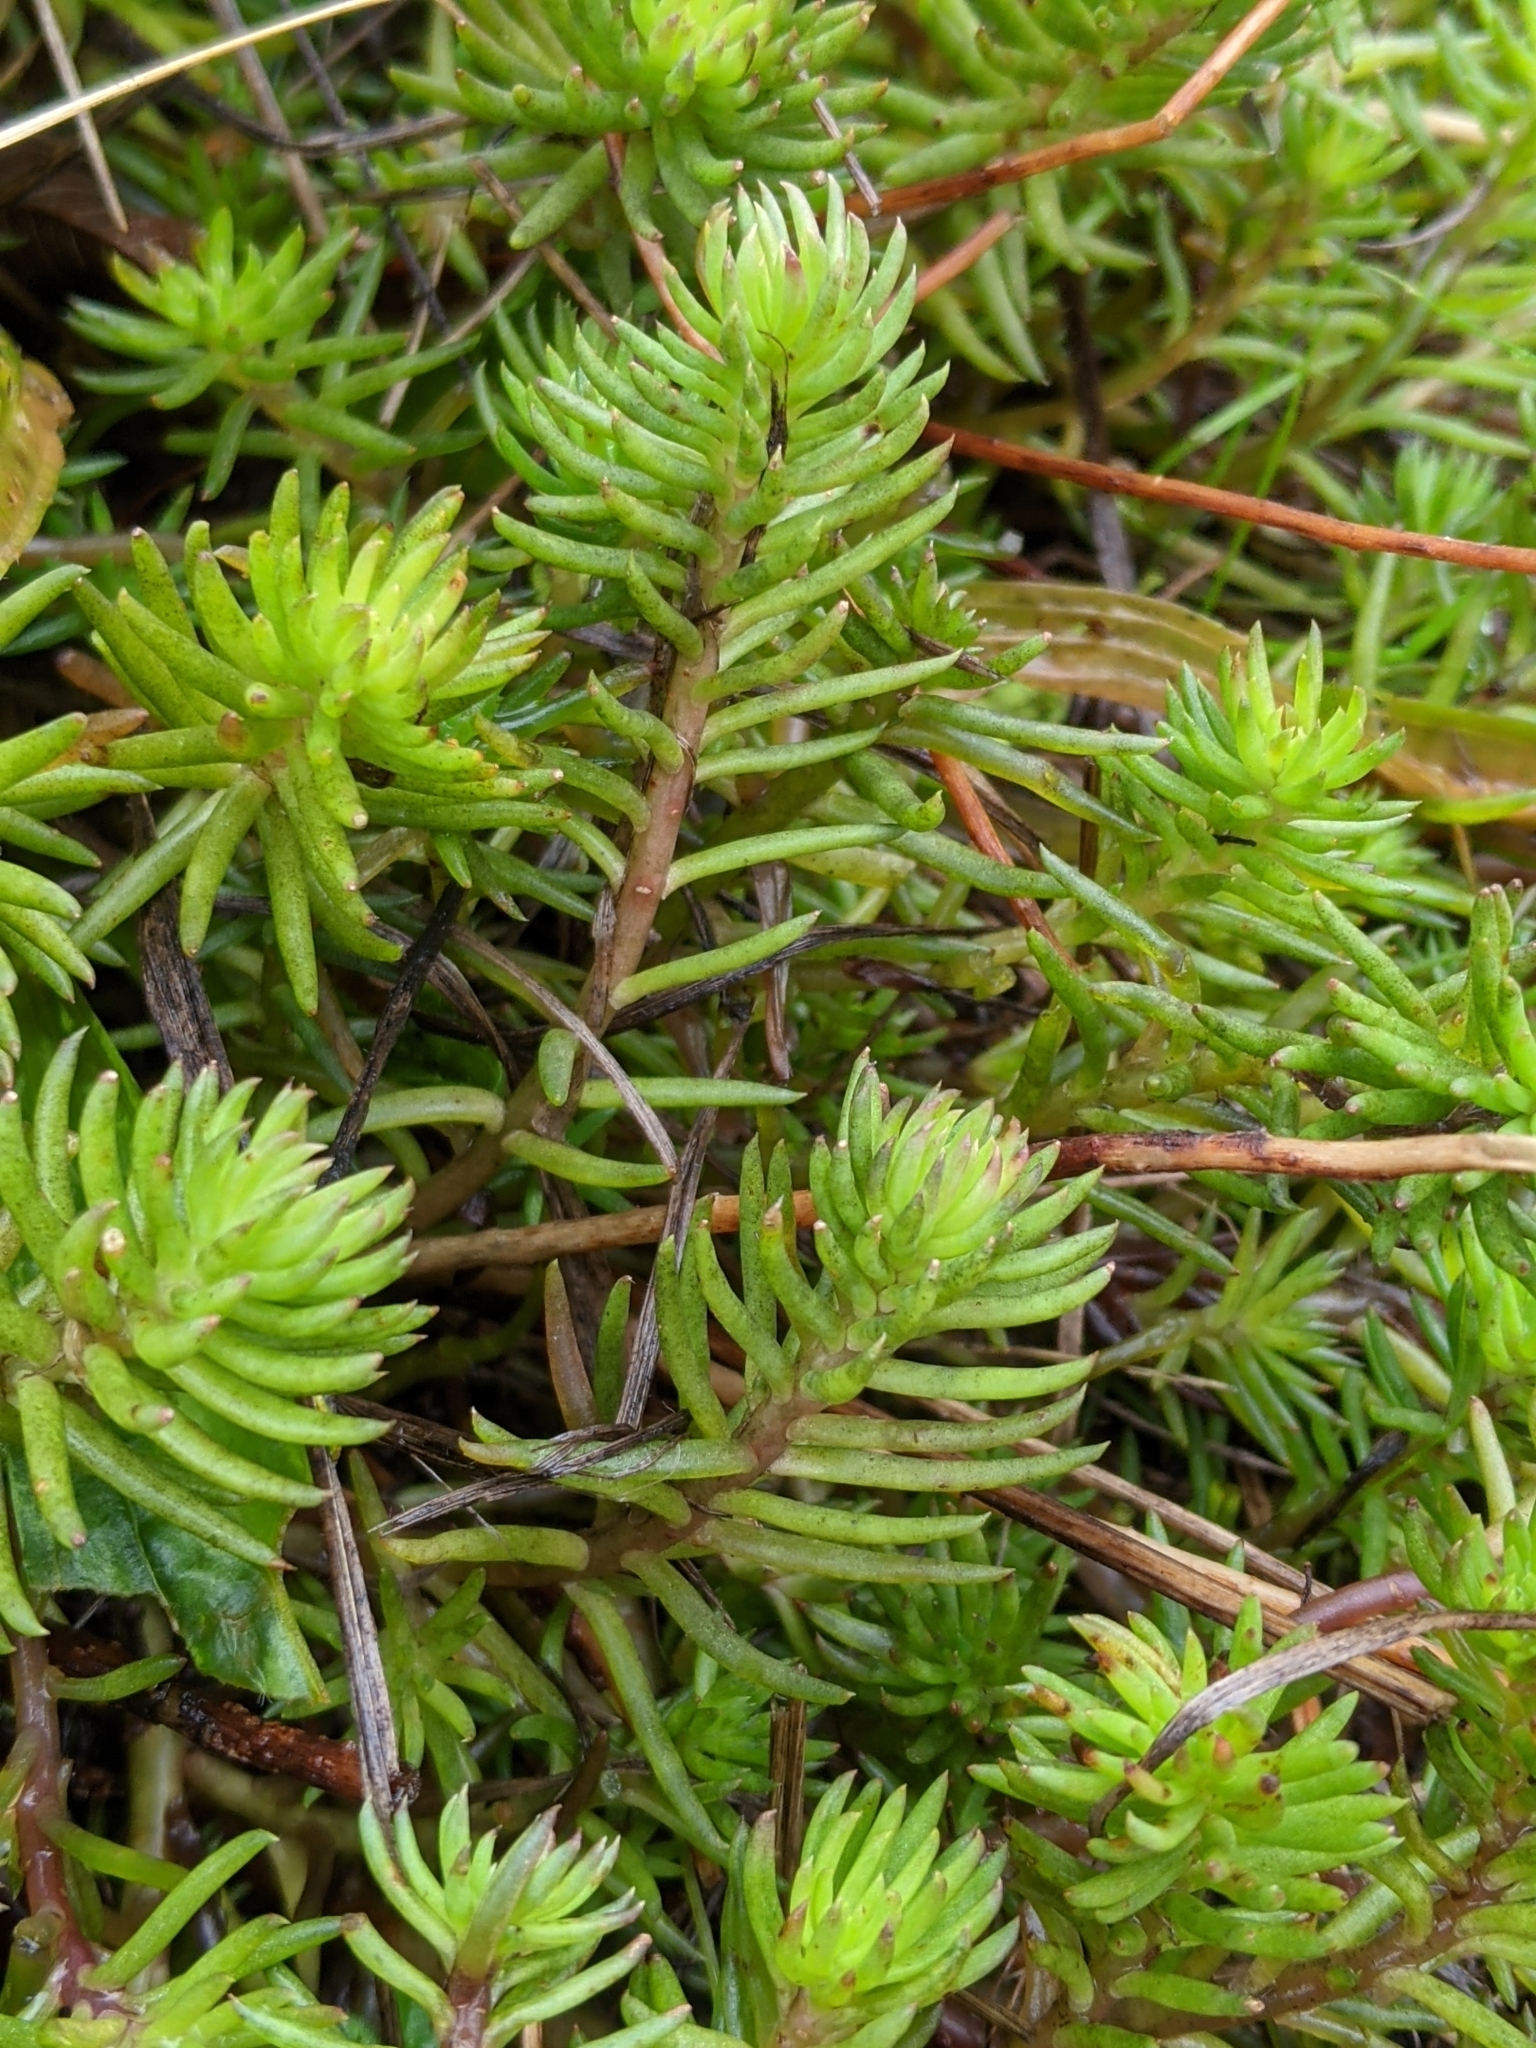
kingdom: Plantae
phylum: Tracheophyta
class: Magnoliopsida
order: Saxifragales
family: Crassulaceae
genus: Petrosedum
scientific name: Petrosedum rupestre
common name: Jenny's stonecrop
